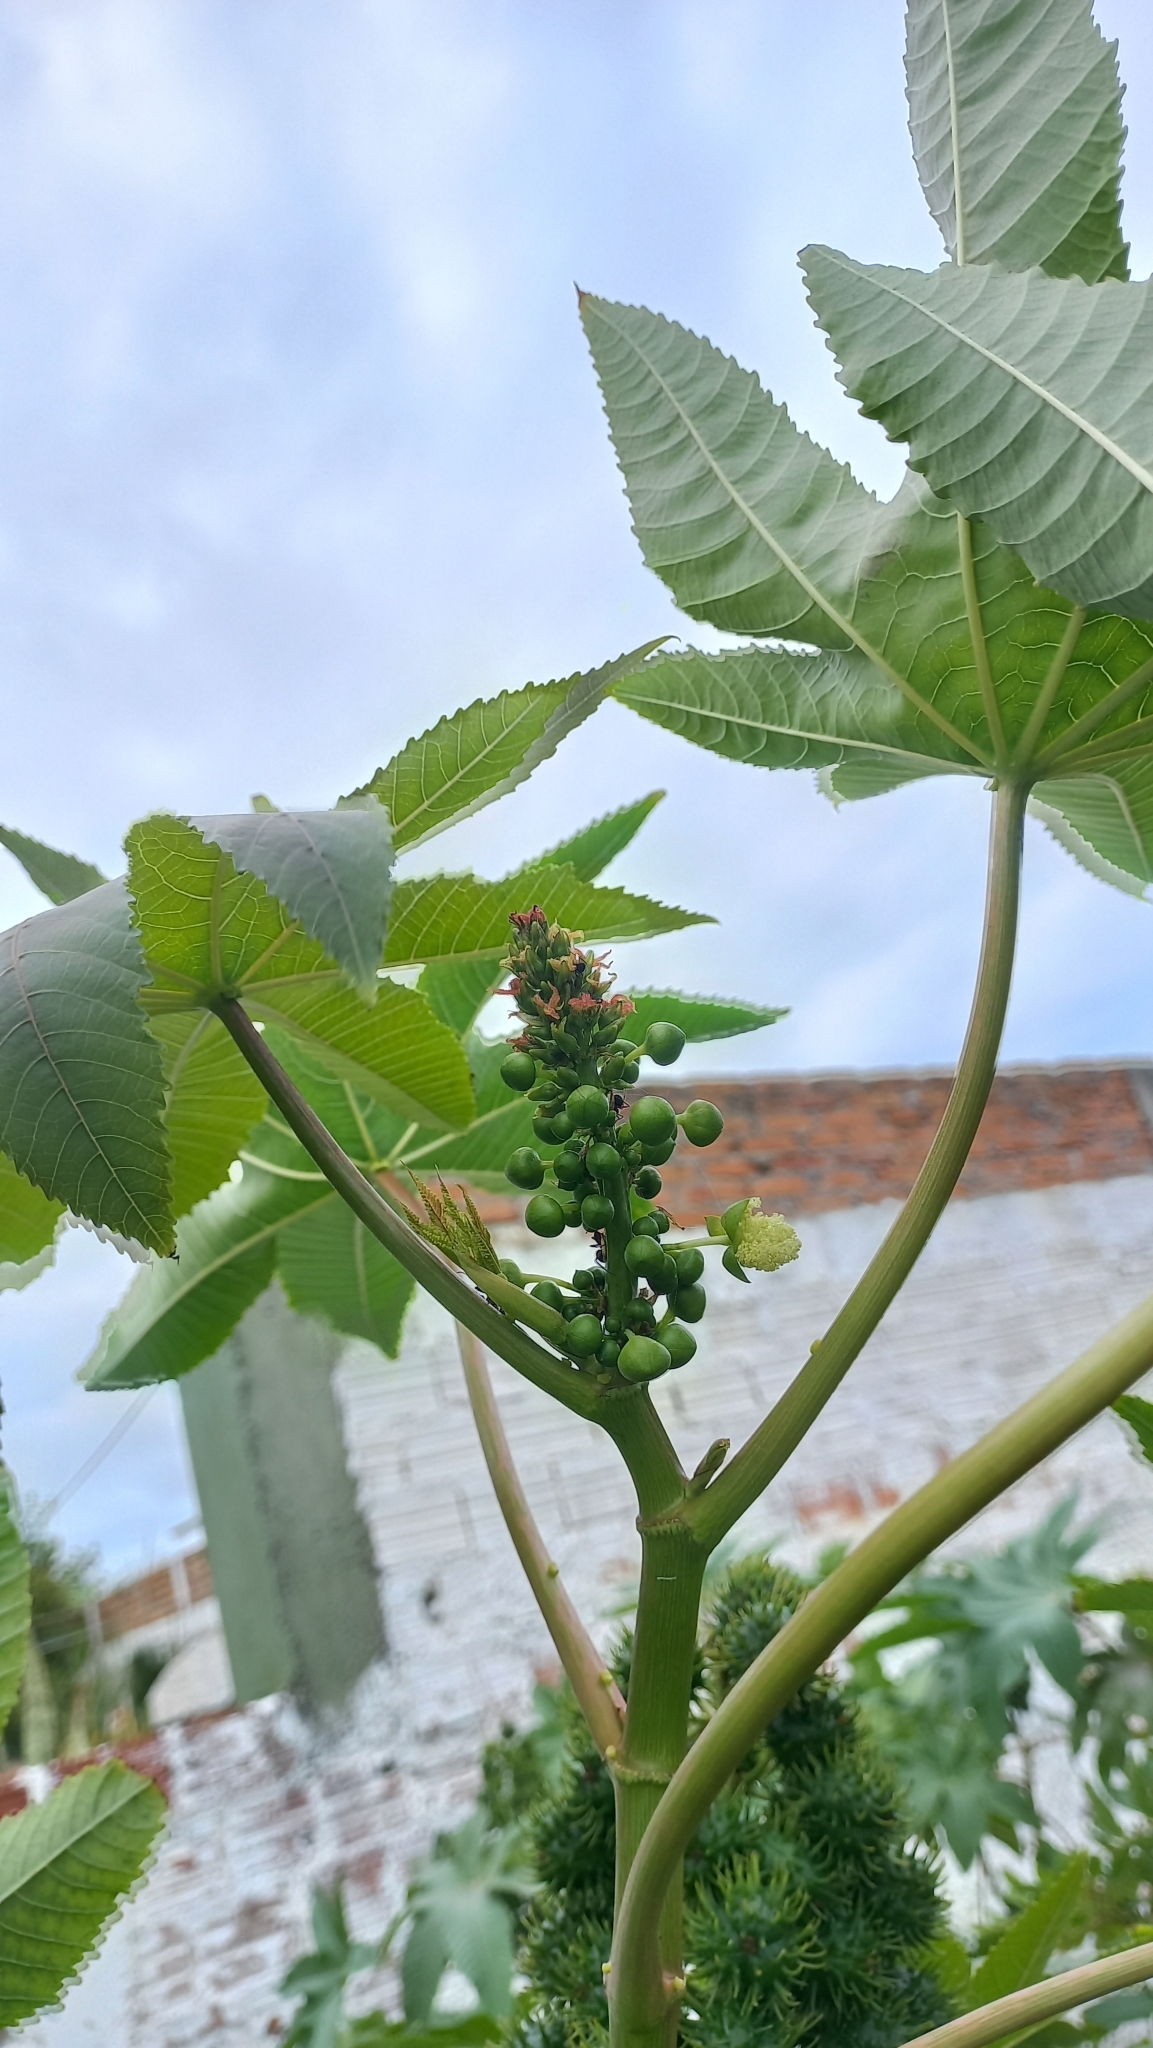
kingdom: Plantae
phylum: Tracheophyta
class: Magnoliopsida
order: Malpighiales
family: Euphorbiaceae
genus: Ricinus
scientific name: Ricinus communis
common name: Castor-oil-plant
